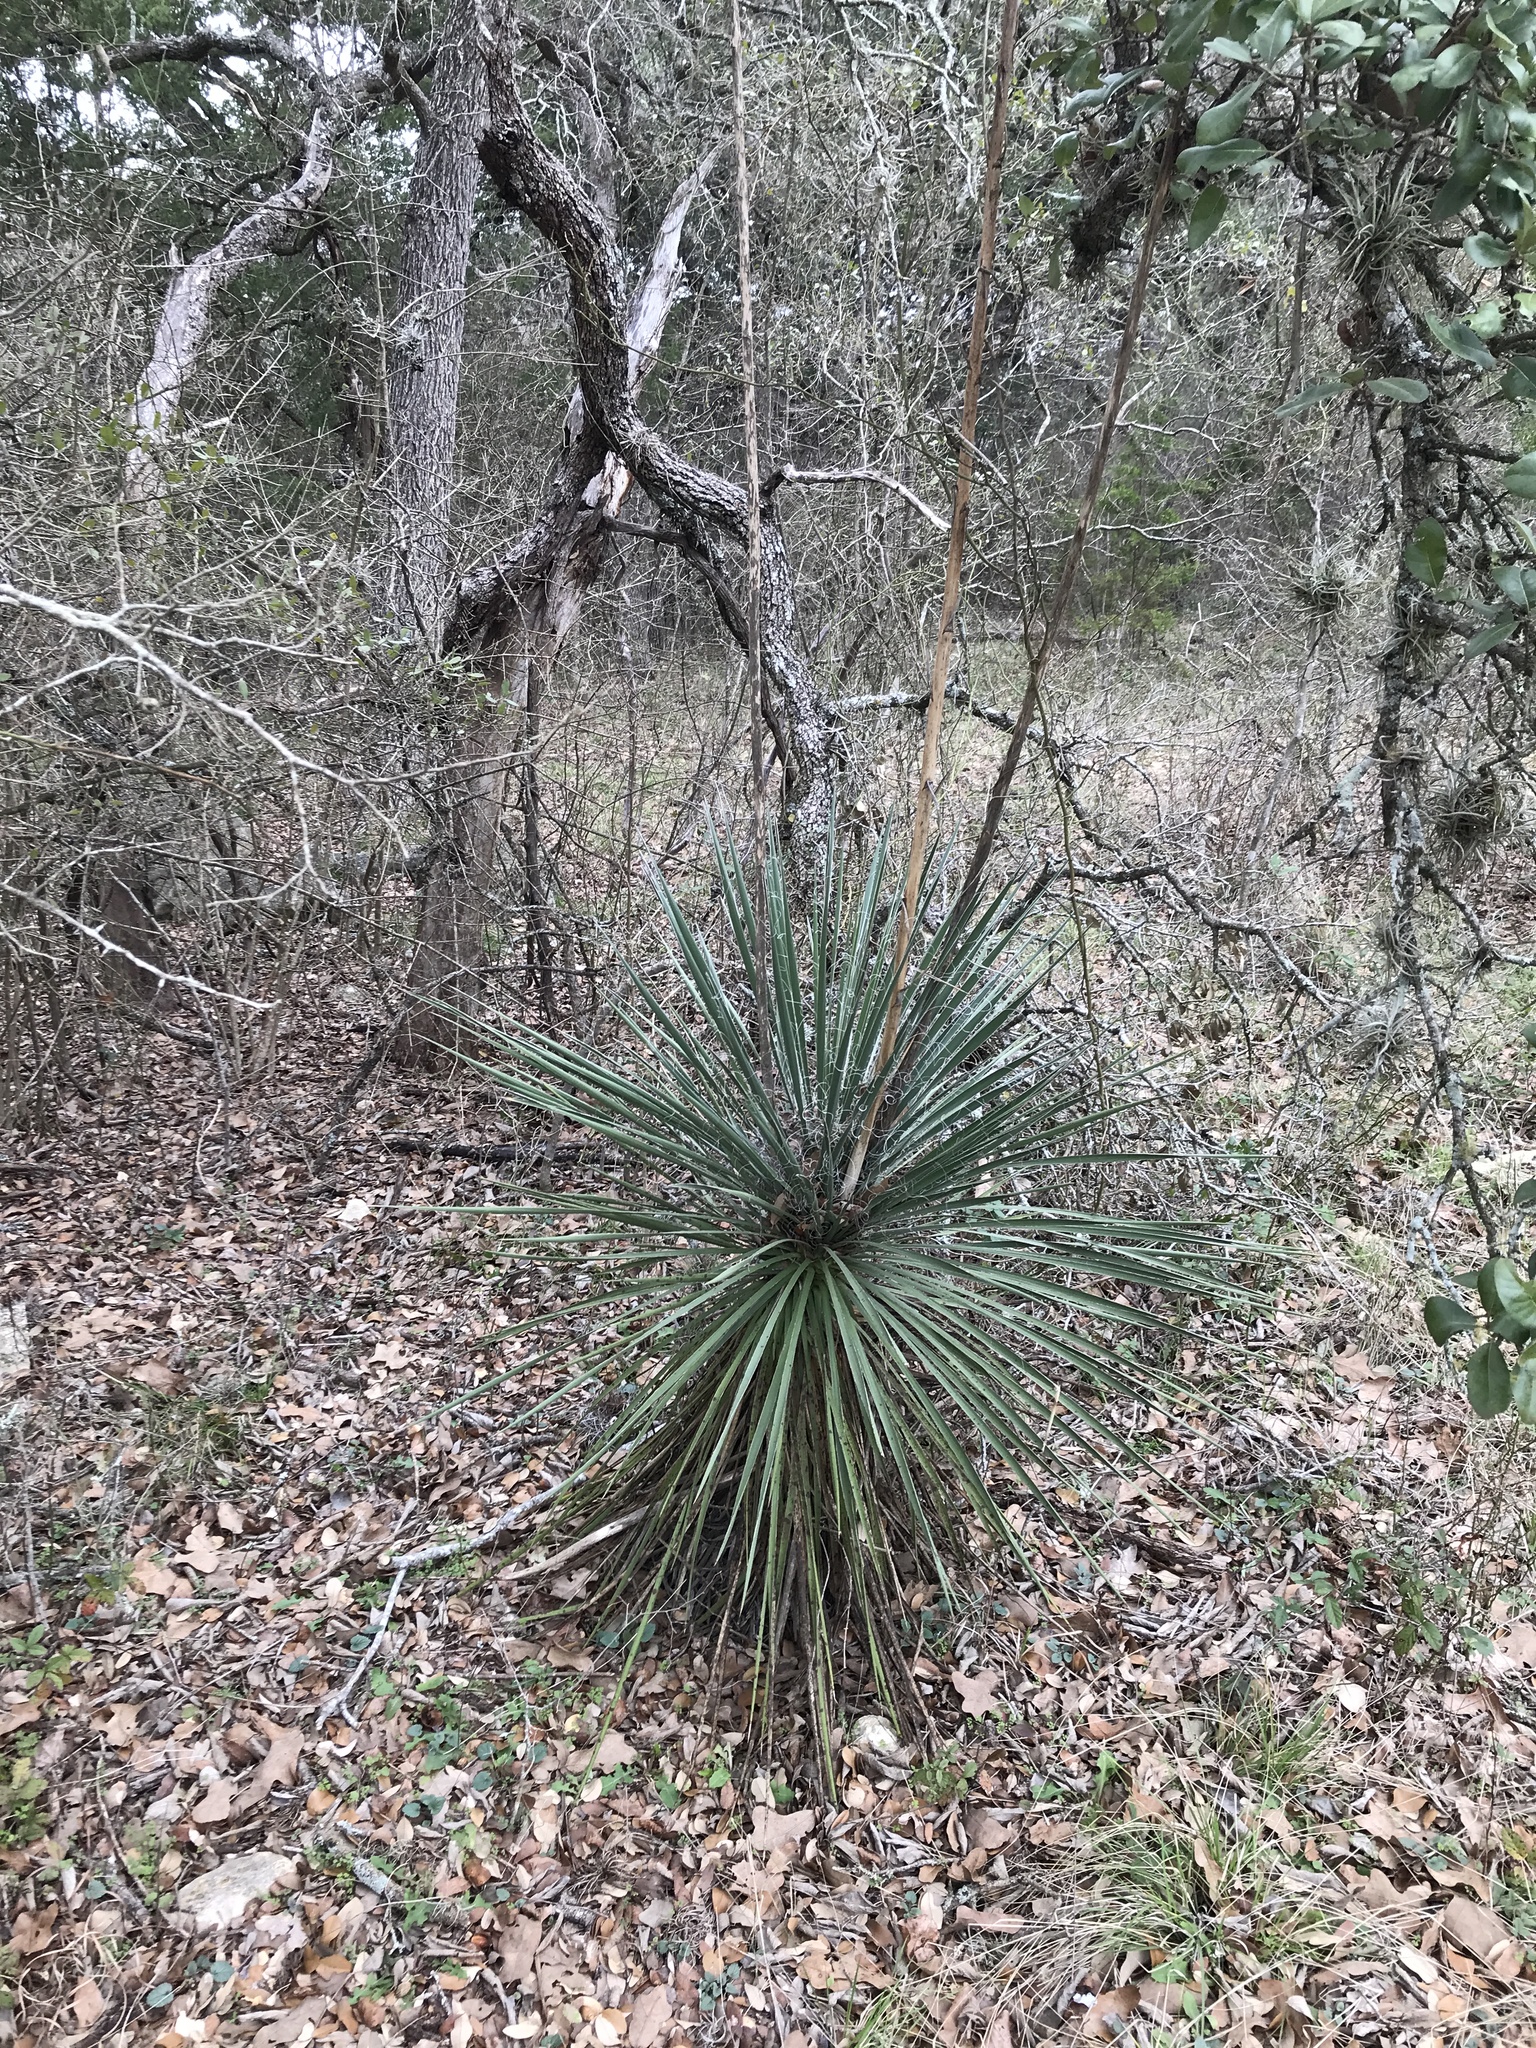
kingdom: Plantae
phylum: Tracheophyta
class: Liliopsida
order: Asparagales
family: Asparagaceae
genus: Yucca
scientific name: Yucca constricta
